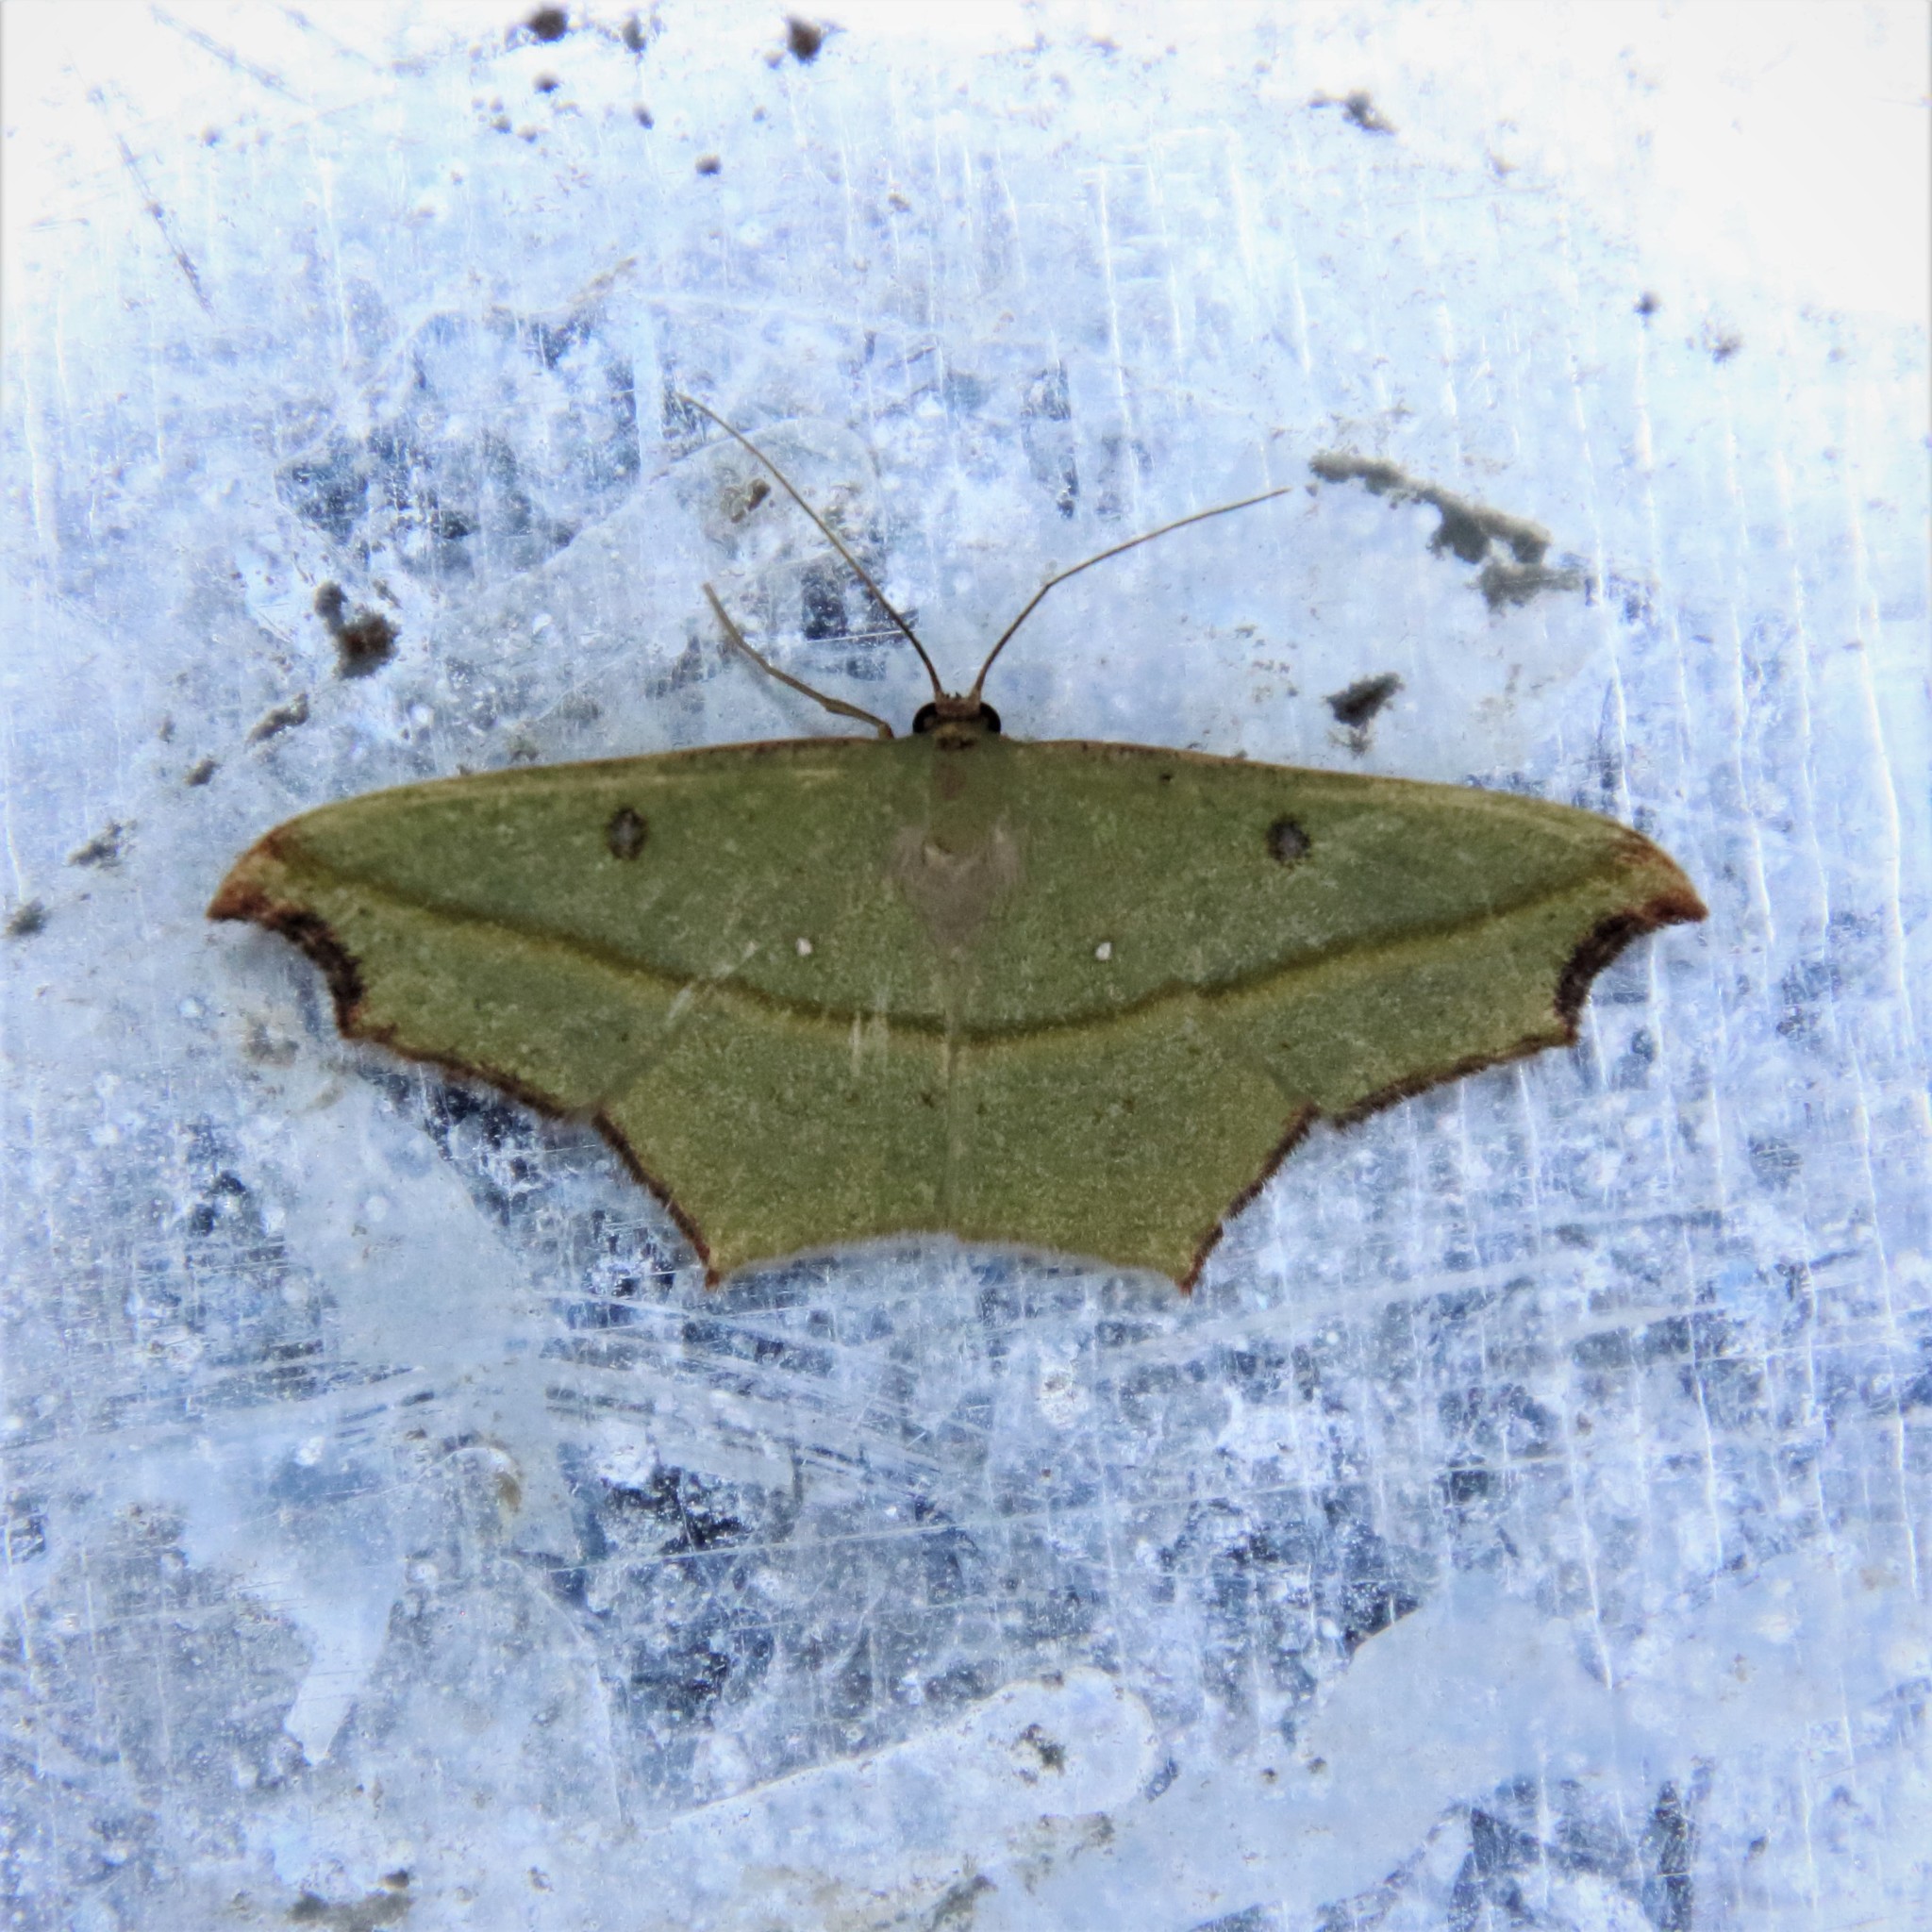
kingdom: Animalia
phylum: Arthropoda
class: Insecta
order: Lepidoptera
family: Geometridae
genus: Traminda
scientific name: Traminda aventiaria
